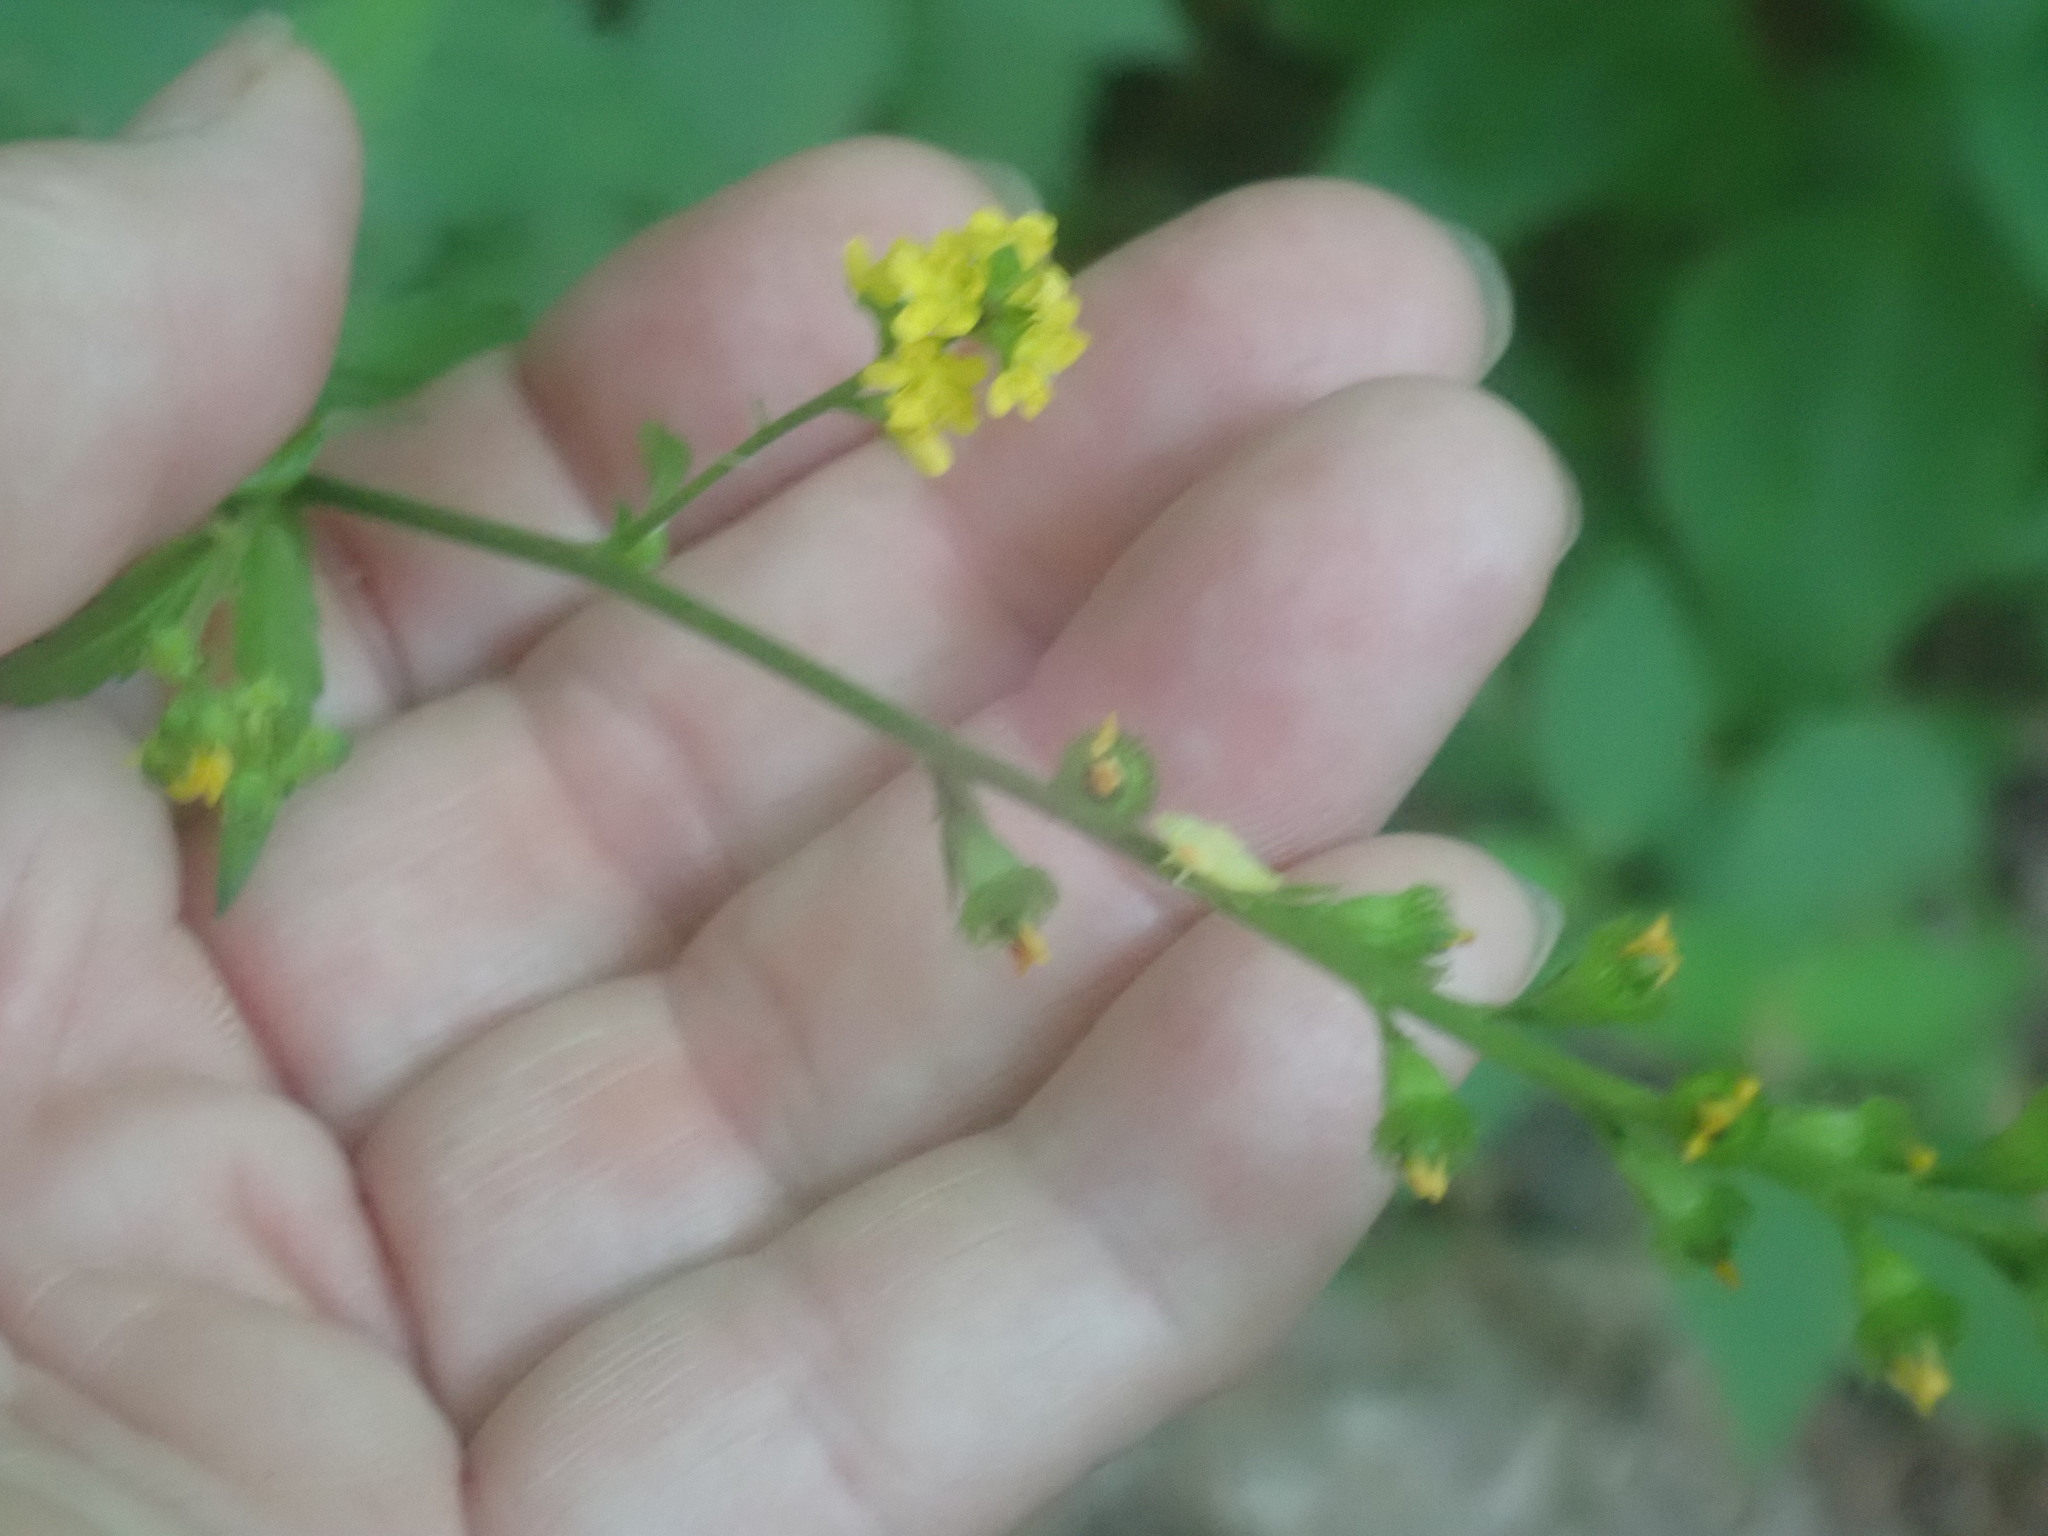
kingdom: Plantae
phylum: Tracheophyta
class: Magnoliopsida
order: Rosales
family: Rosaceae
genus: Agrimonia
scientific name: Agrimonia
